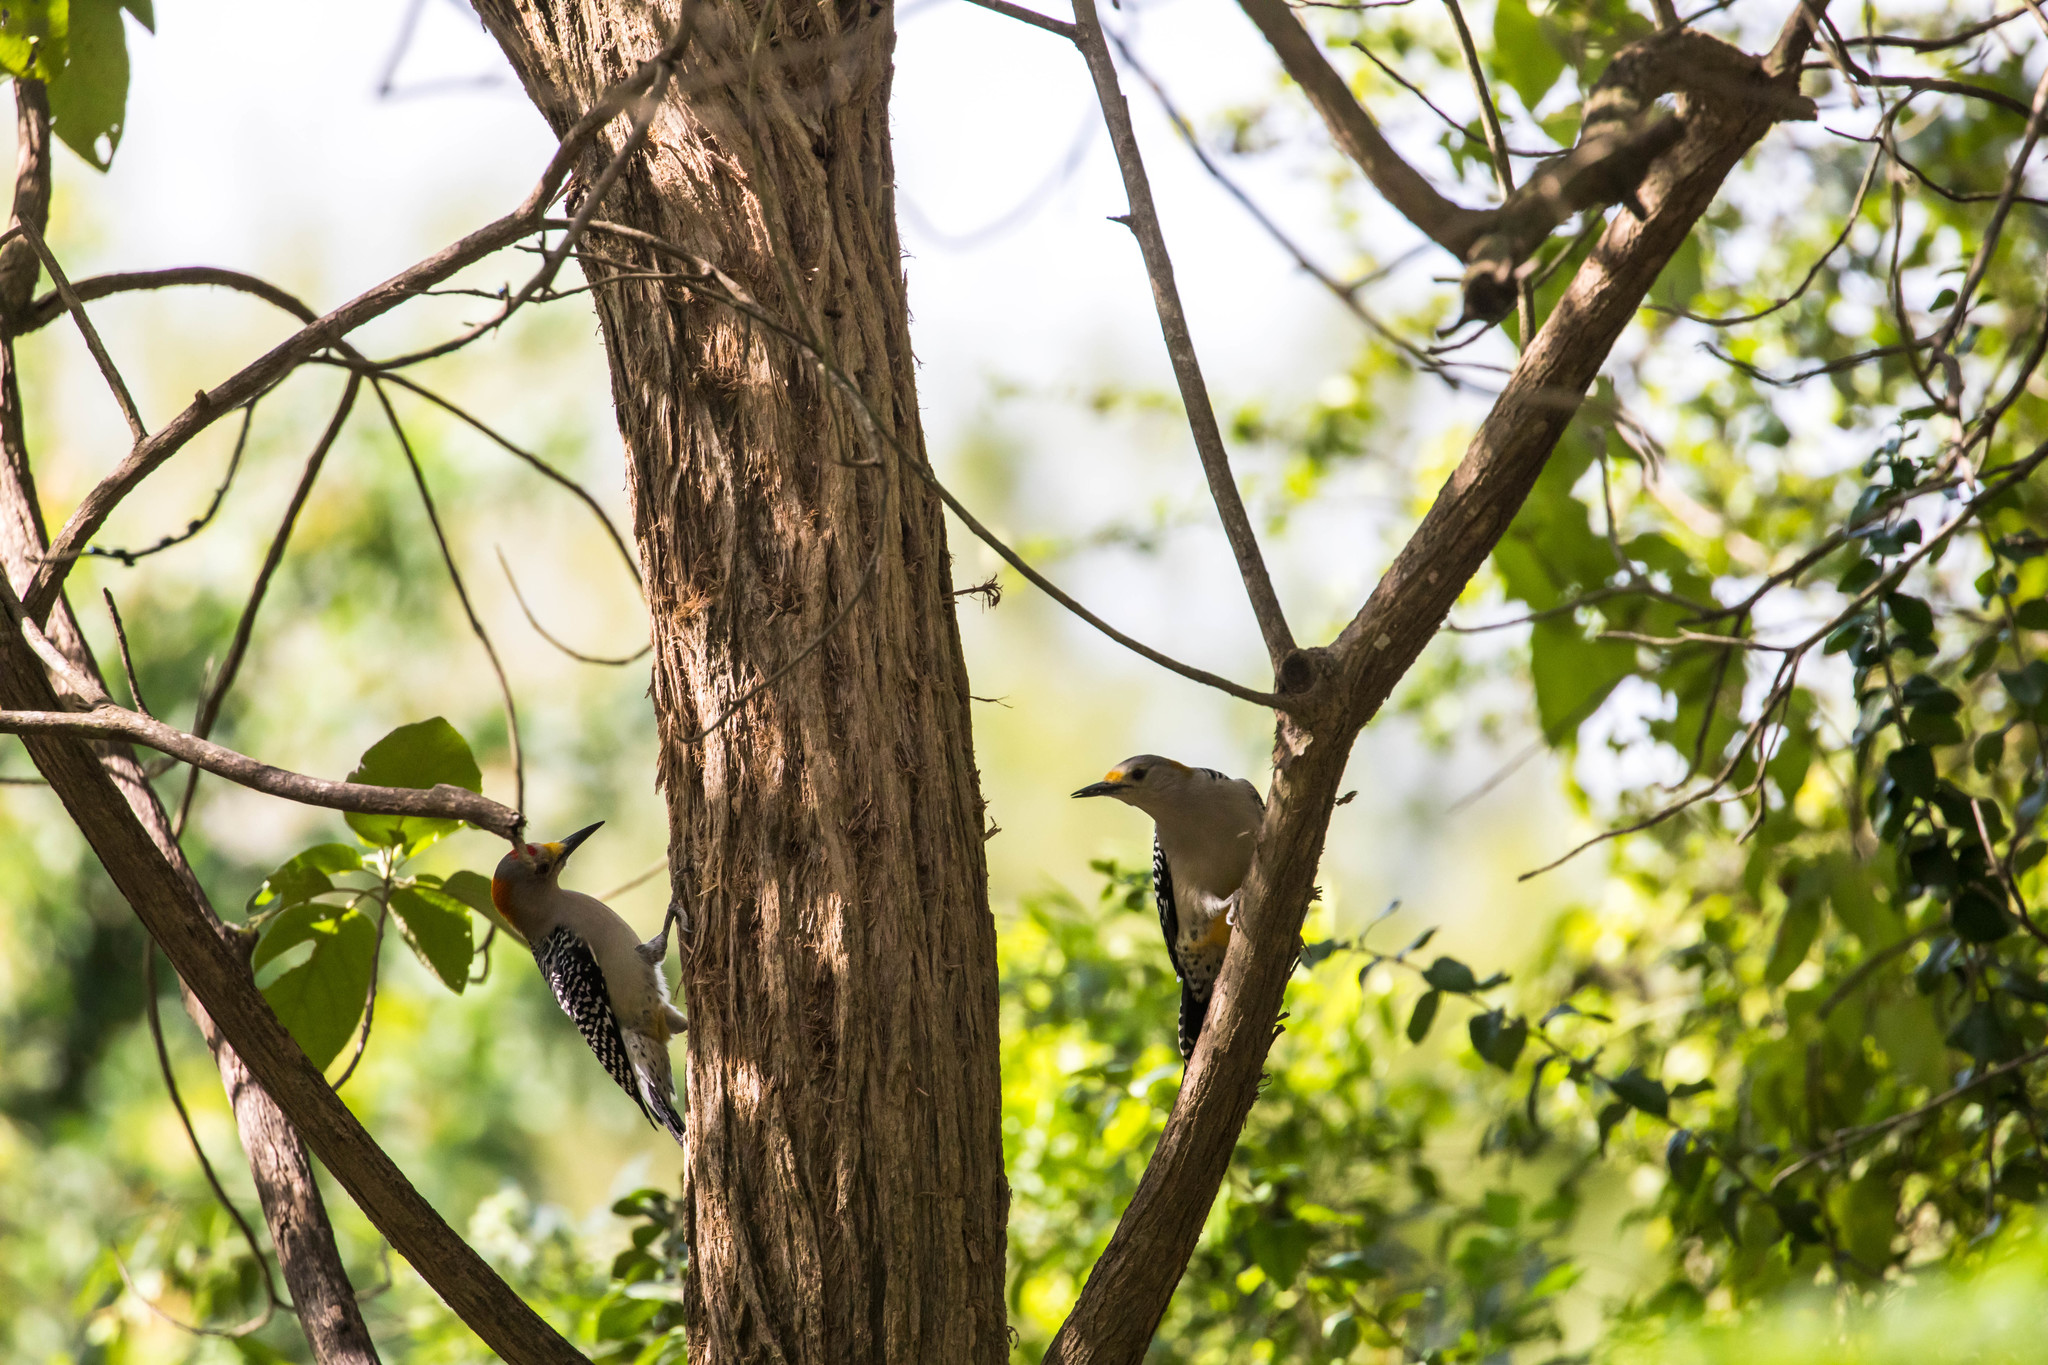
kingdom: Animalia
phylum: Chordata
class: Aves
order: Piciformes
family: Picidae
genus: Melanerpes
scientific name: Melanerpes aurifrons
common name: Golden-fronted woodpecker
